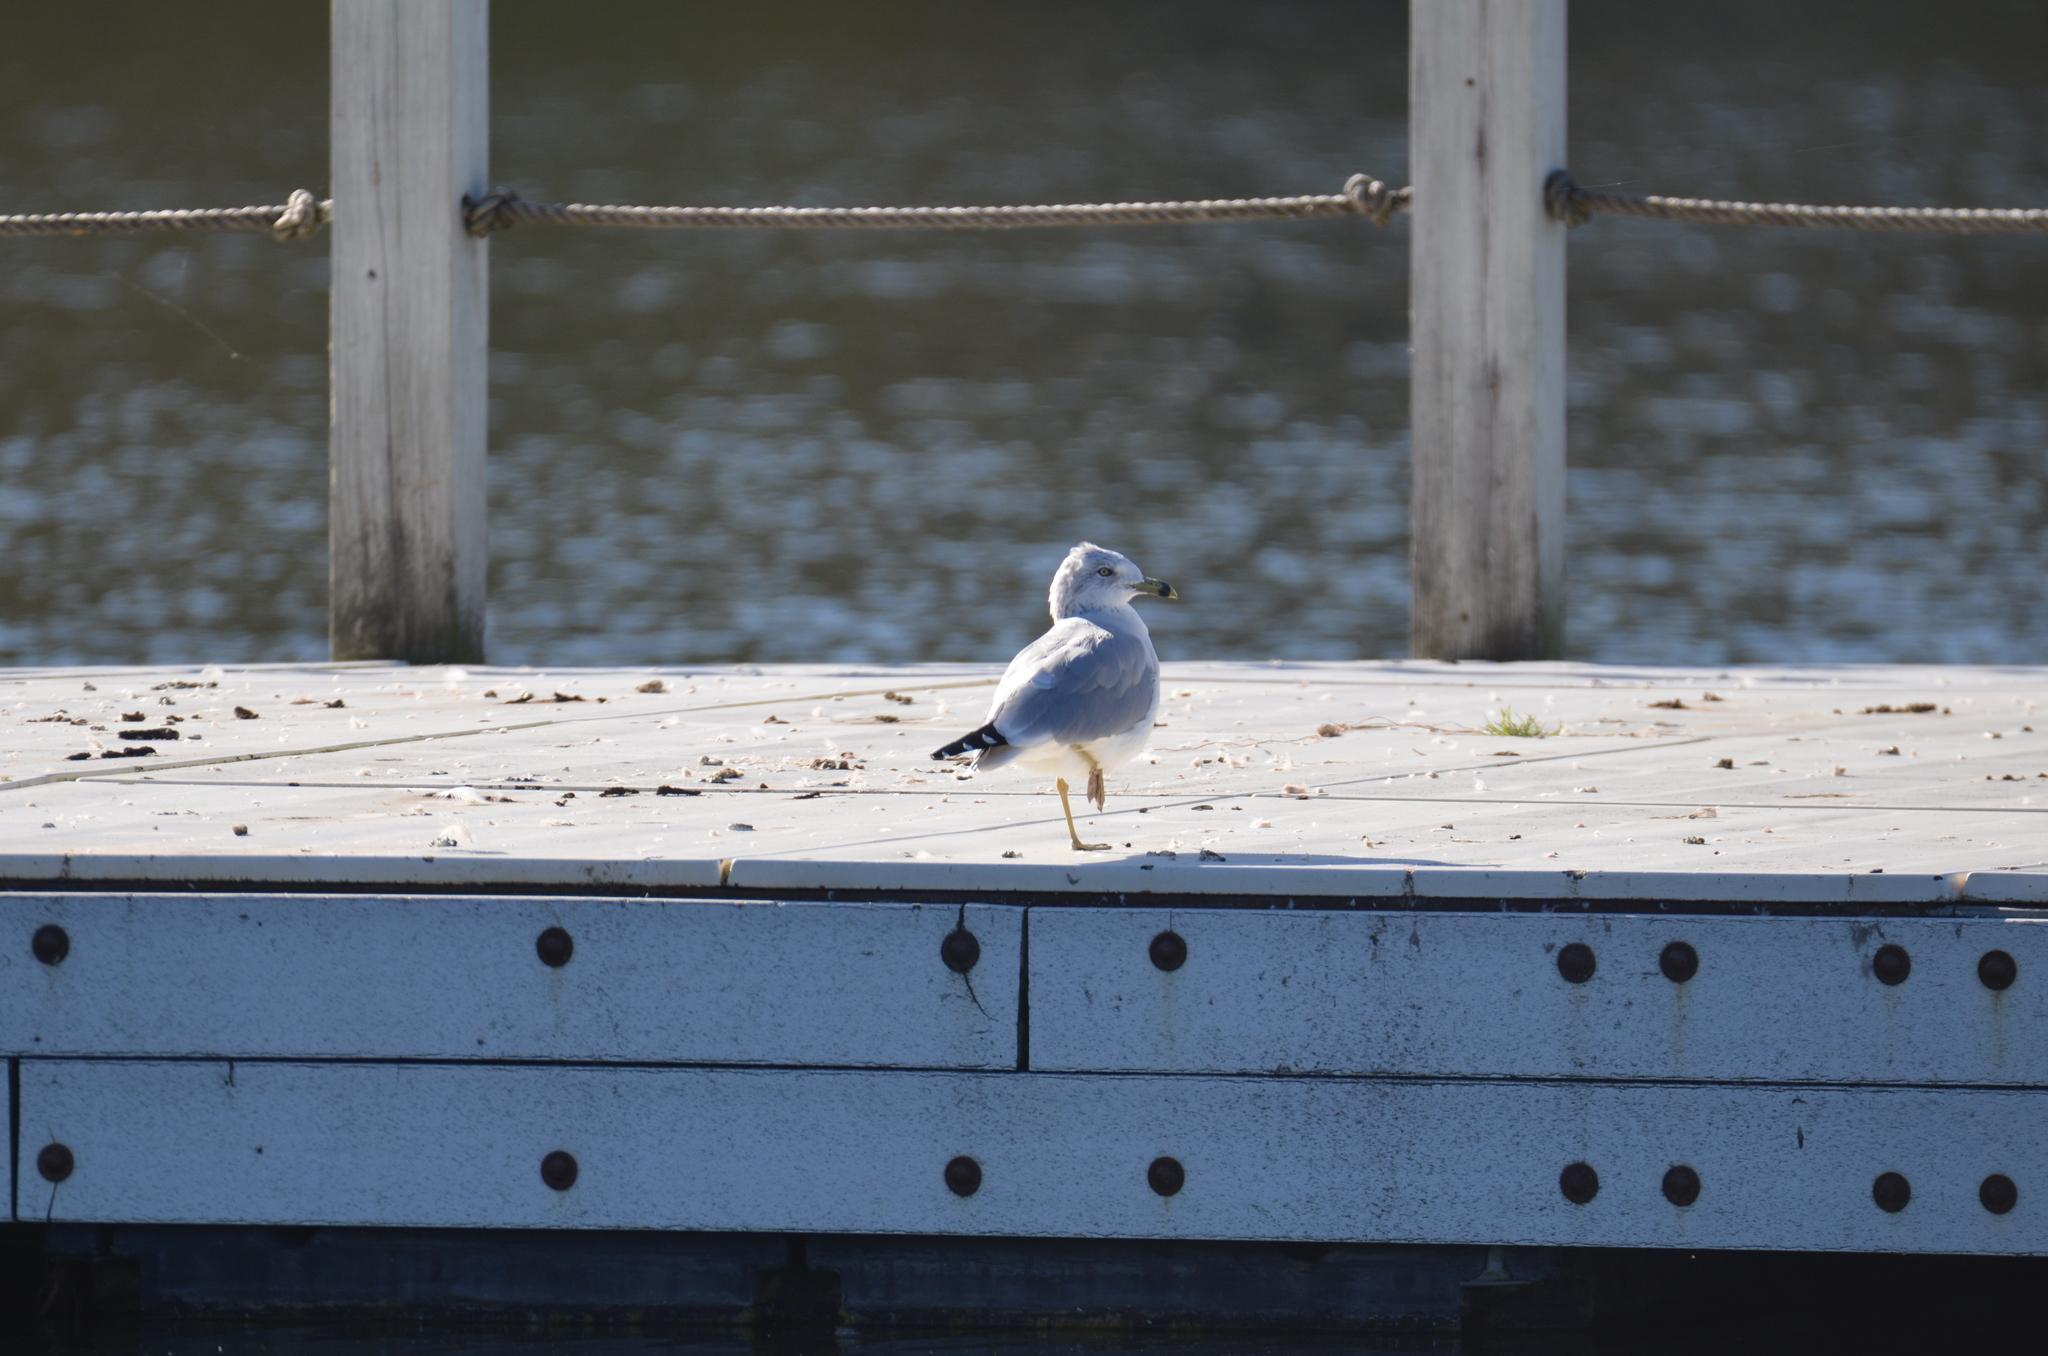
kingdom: Animalia
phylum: Chordata
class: Aves
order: Charadriiformes
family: Laridae
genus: Larus
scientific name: Larus delawarensis
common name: Ring-billed gull
